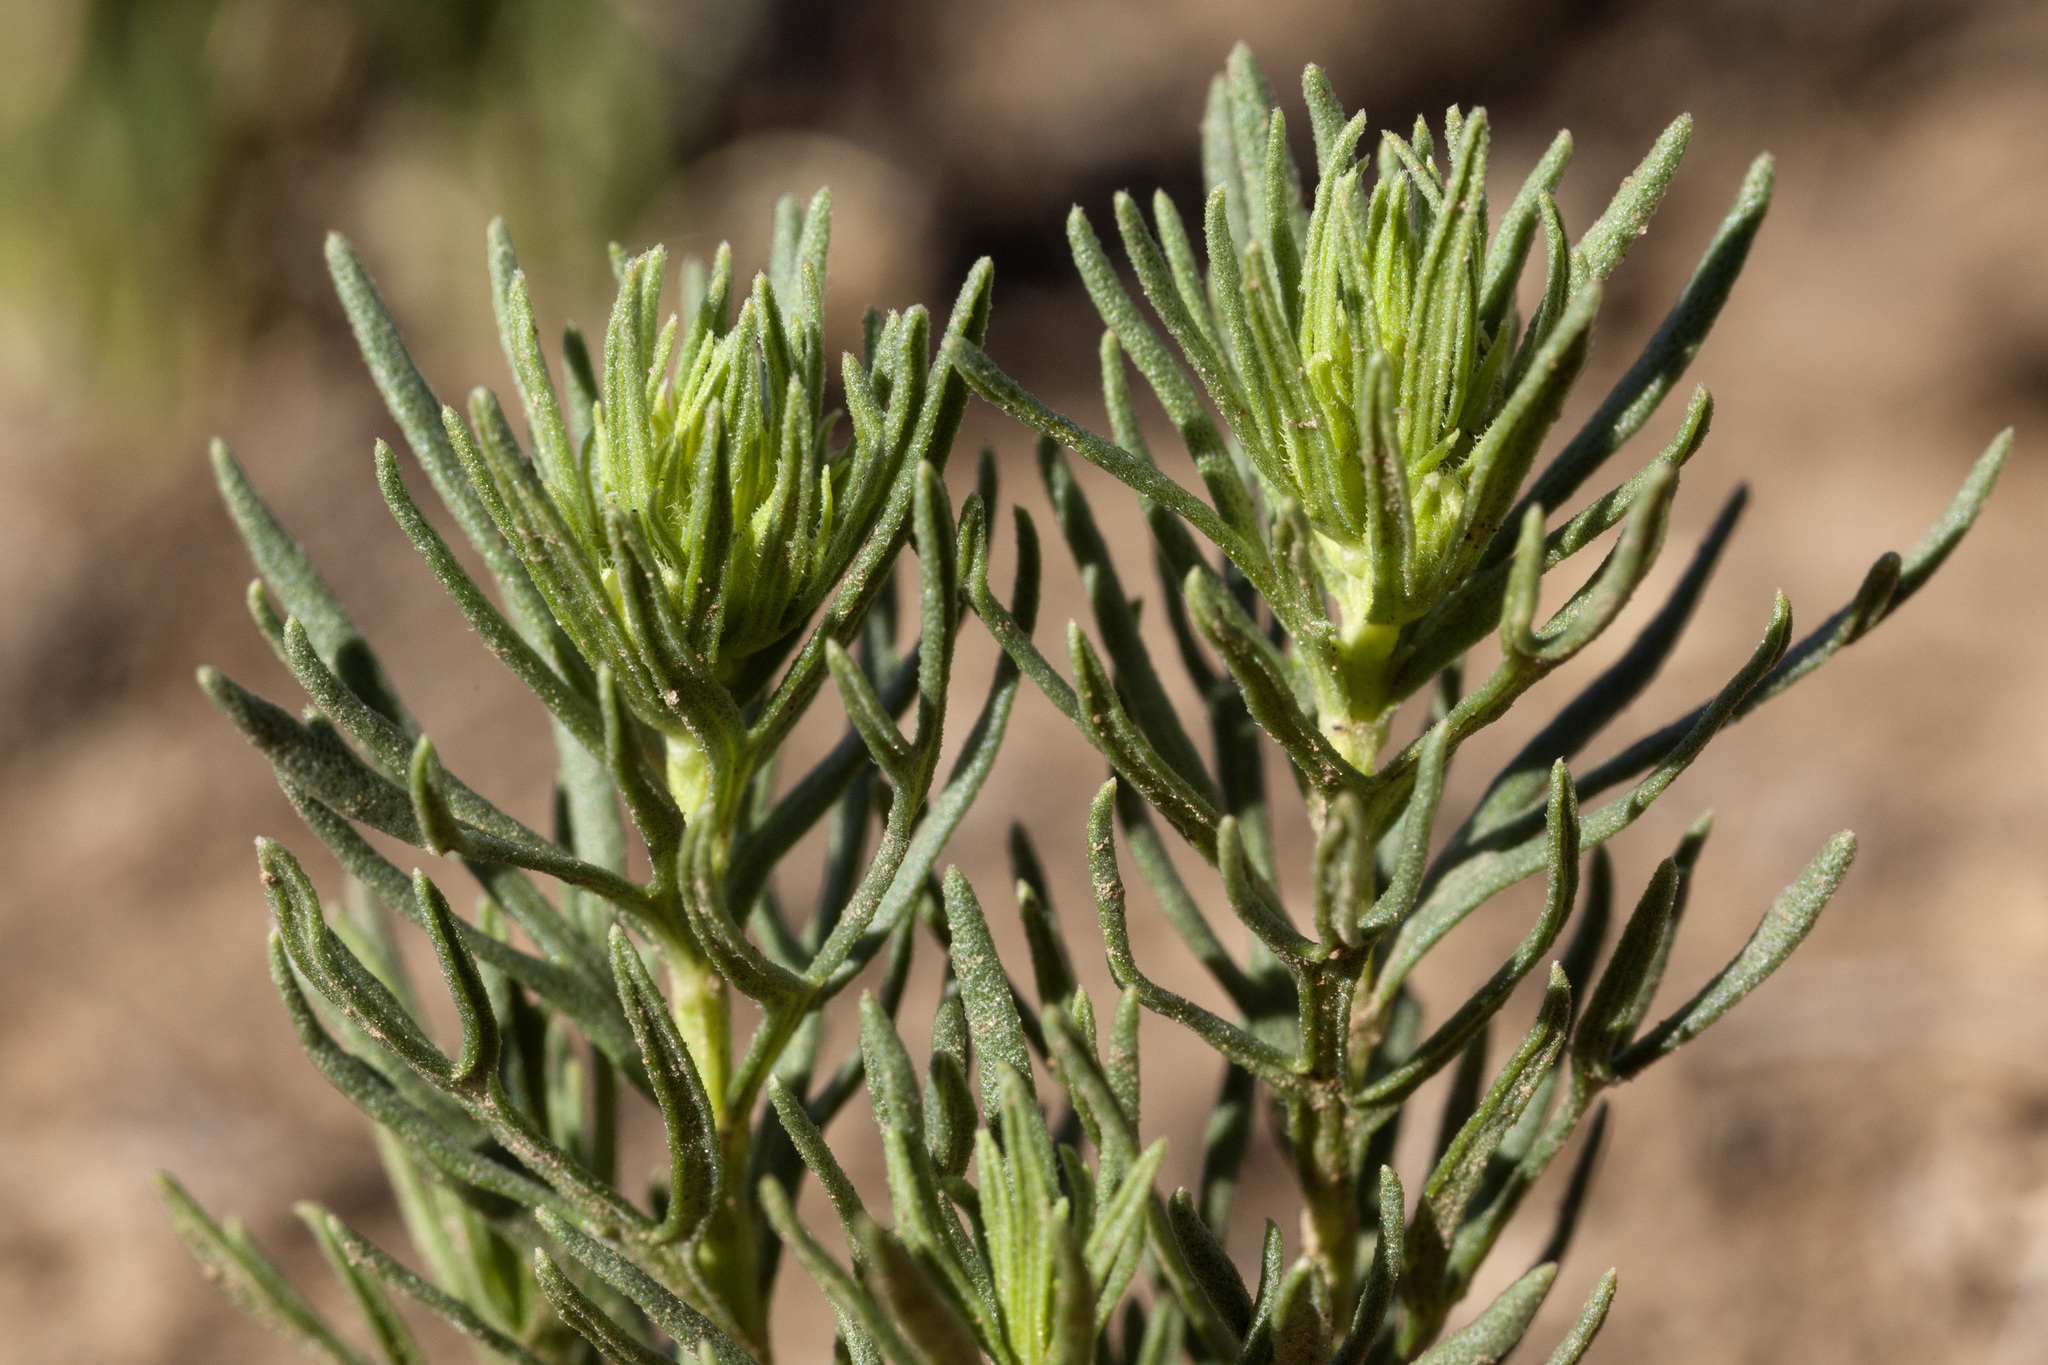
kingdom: Plantae
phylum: Tracheophyta
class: Magnoliopsida
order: Lamiales
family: Lamiaceae
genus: Teucrium
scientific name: Teucrium laciniatum
